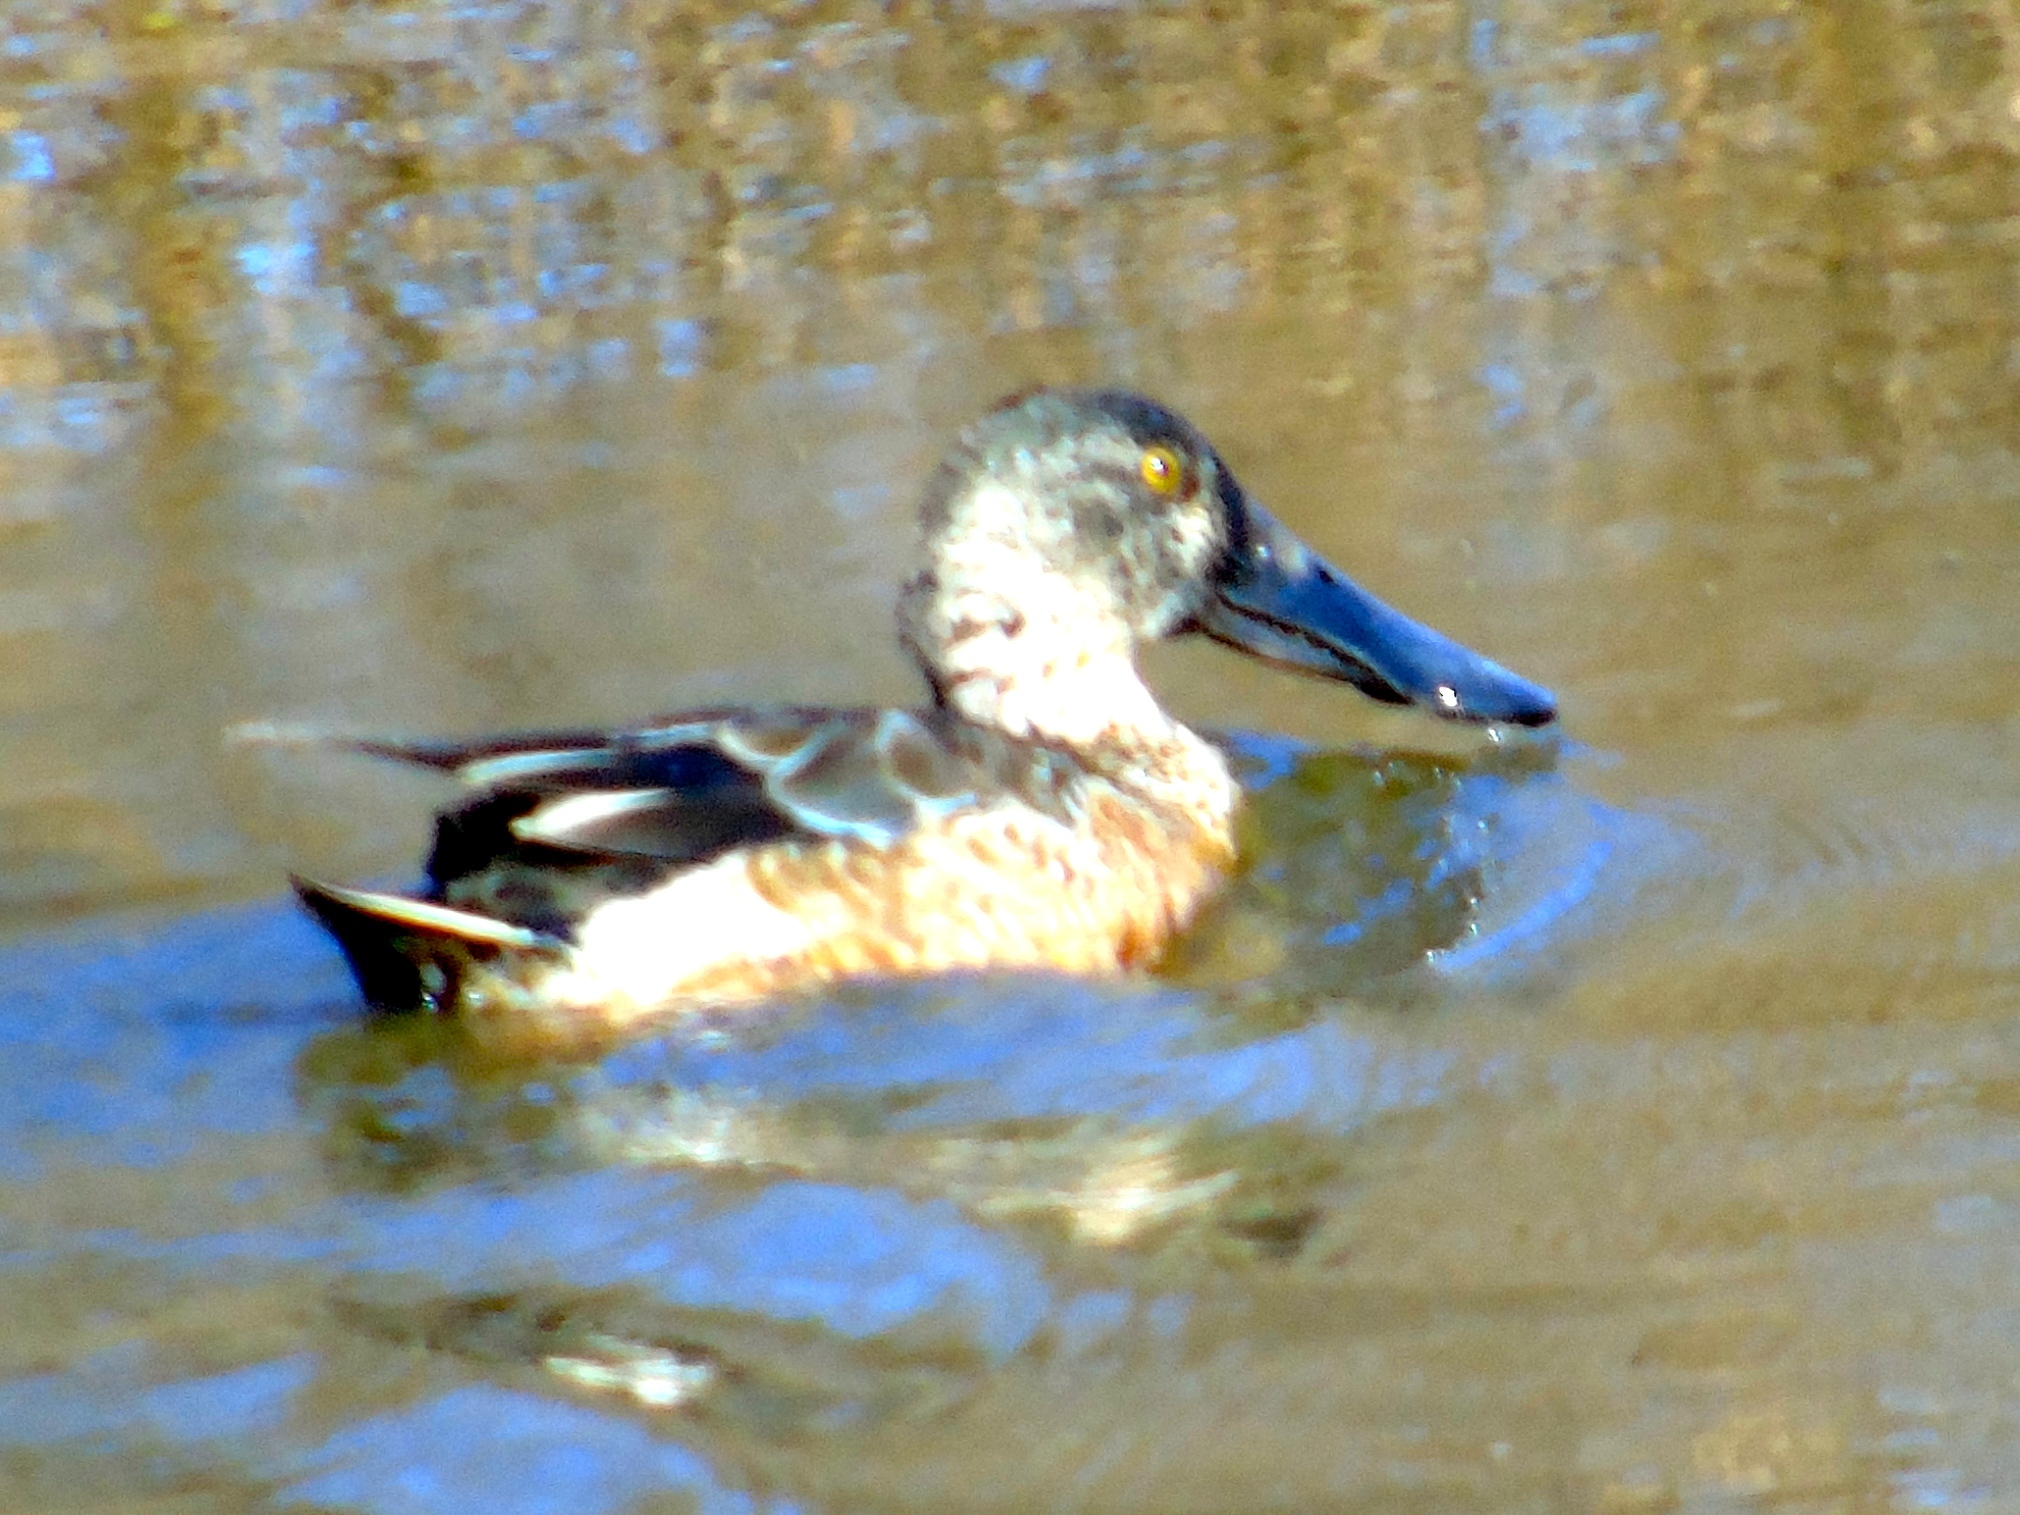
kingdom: Animalia
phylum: Chordata
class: Aves
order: Anseriformes
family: Anatidae
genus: Spatula
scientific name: Spatula clypeata
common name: Northern shoveler
